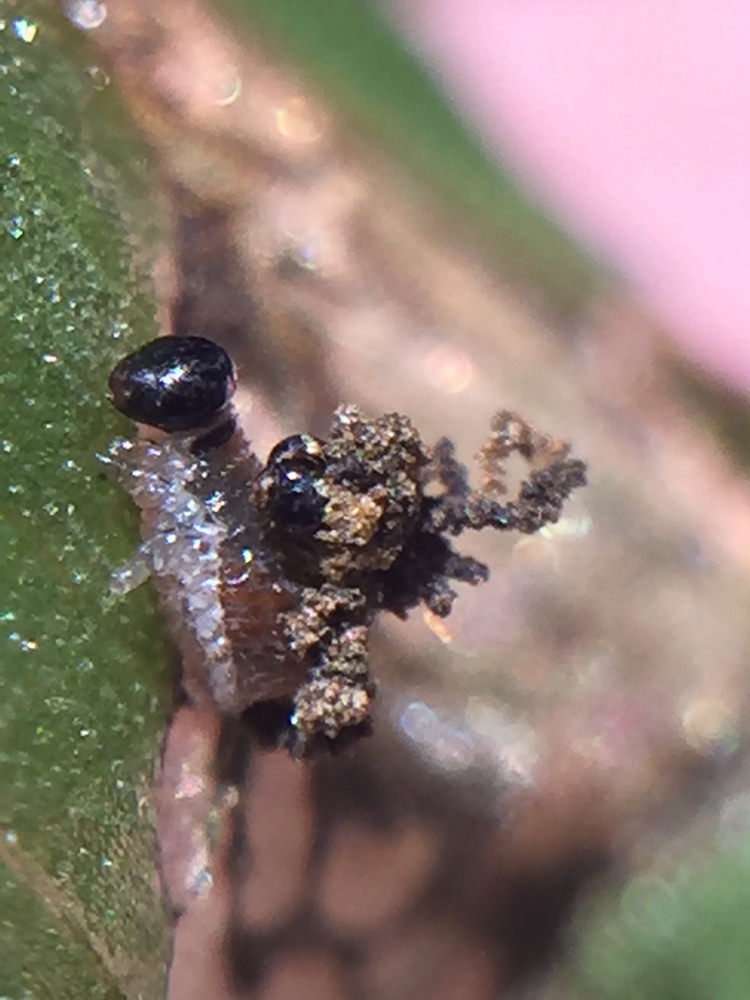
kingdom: Animalia
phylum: Arthropoda
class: Insecta
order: Coleoptera
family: Chrysomelidae
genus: Neolema
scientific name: Neolema ogloblini
